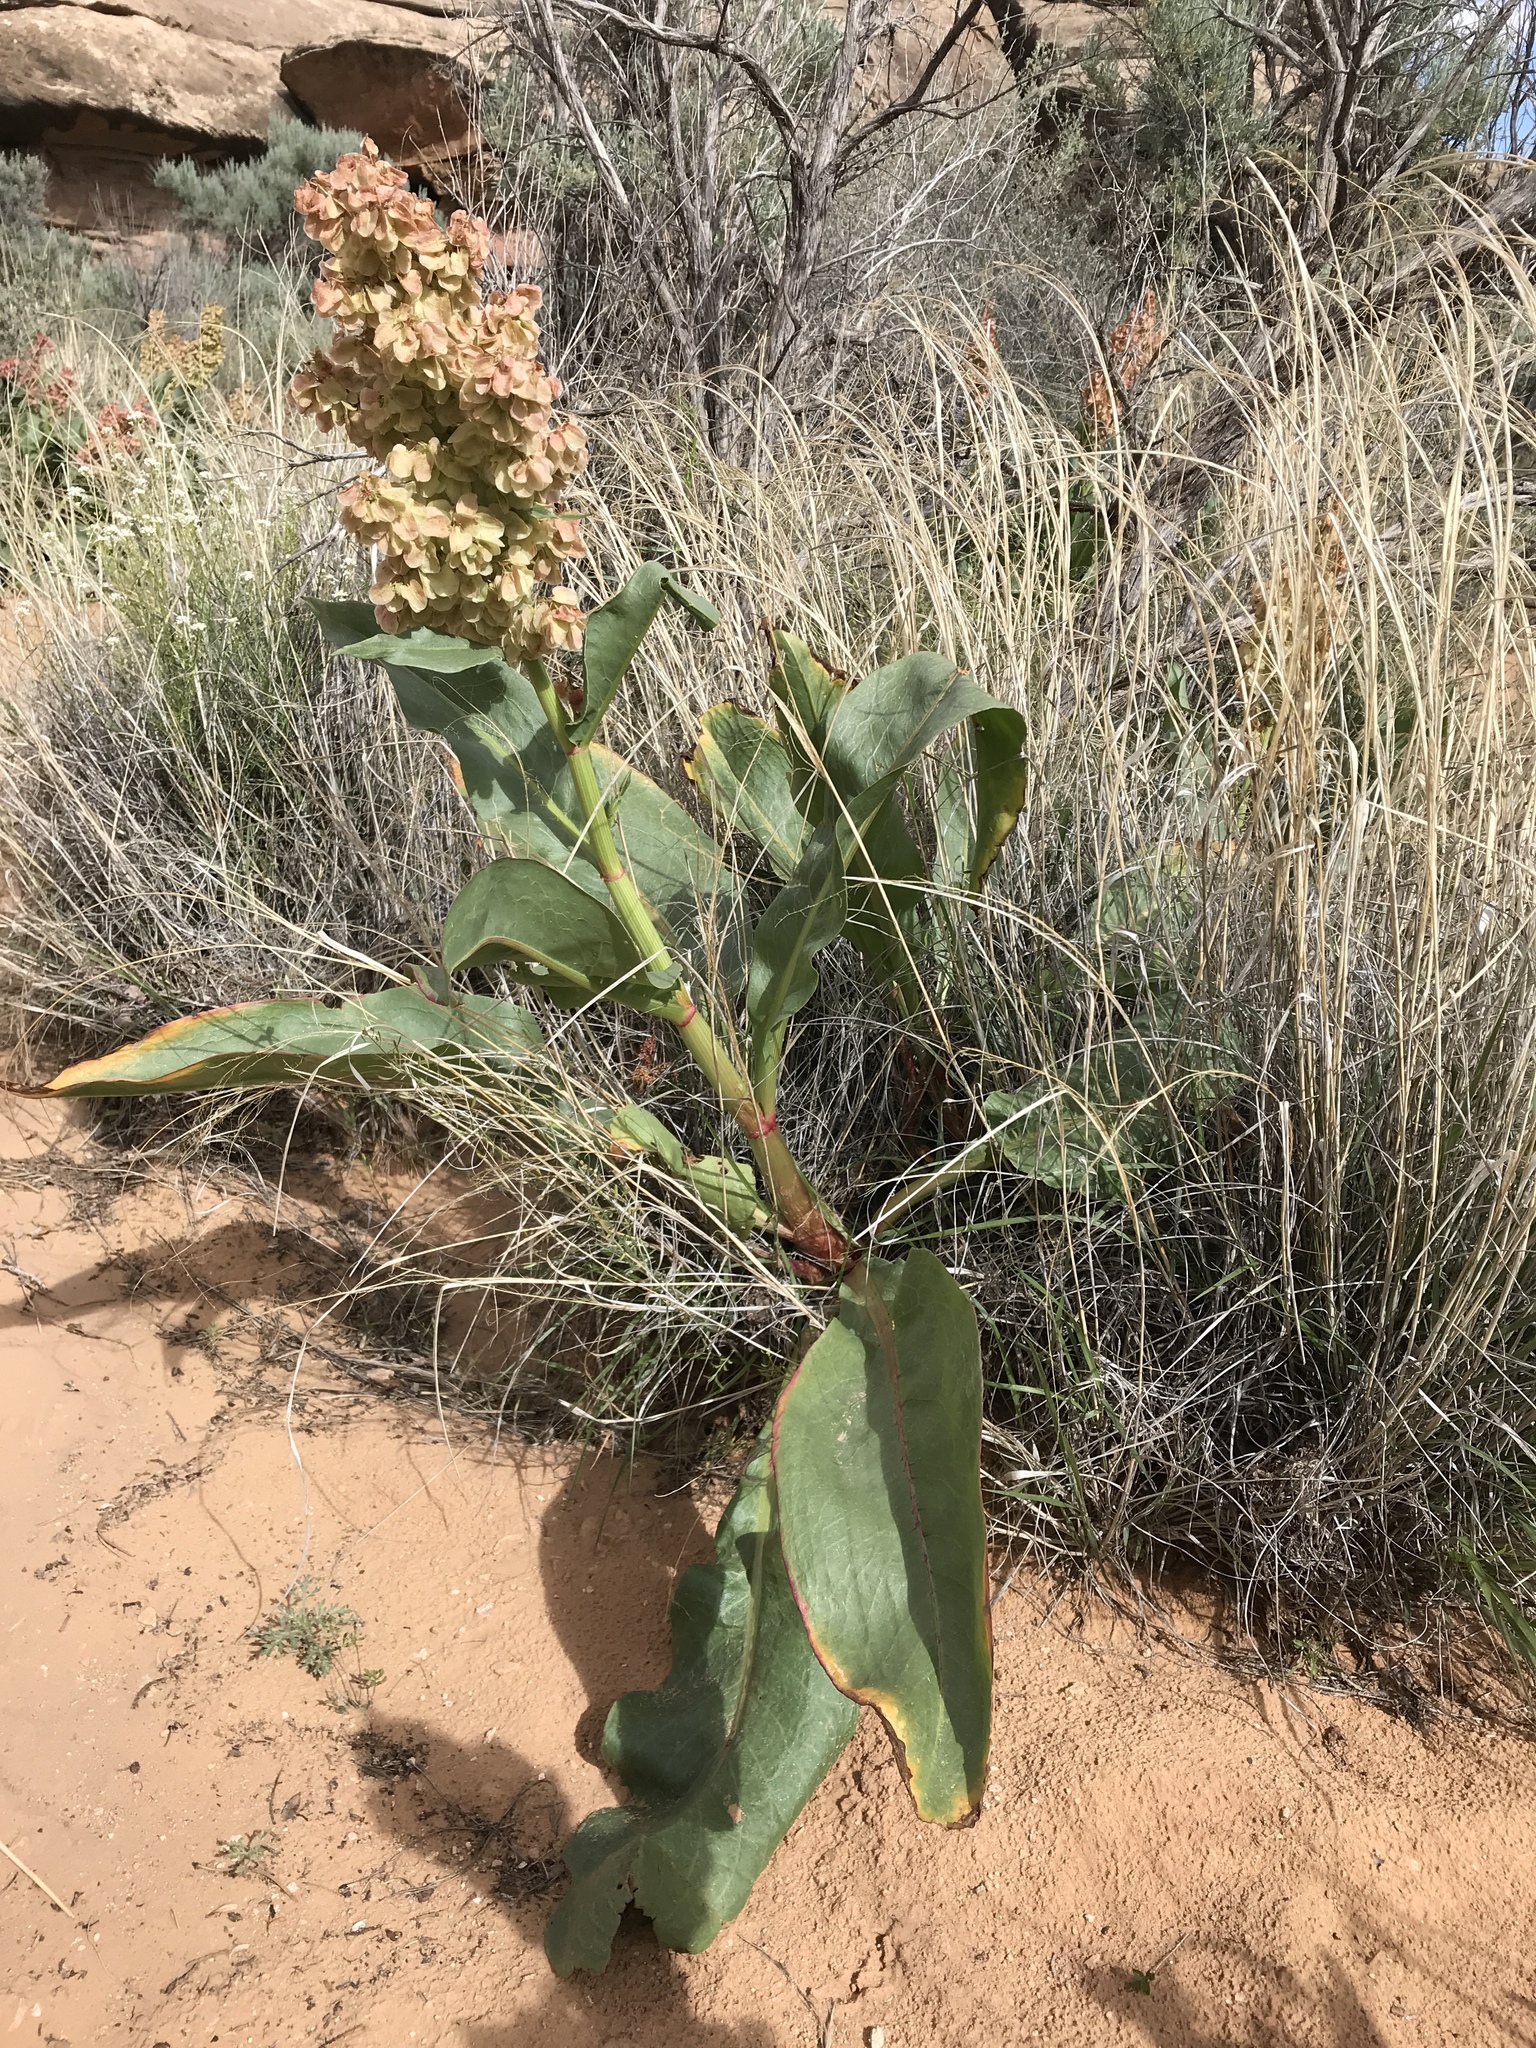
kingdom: Plantae
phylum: Tracheophyta
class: Magnoliopsida
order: Caryophyllales
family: Polygonaceae
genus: Rumex
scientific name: Rumex hymenosepalus
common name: Ganagra
